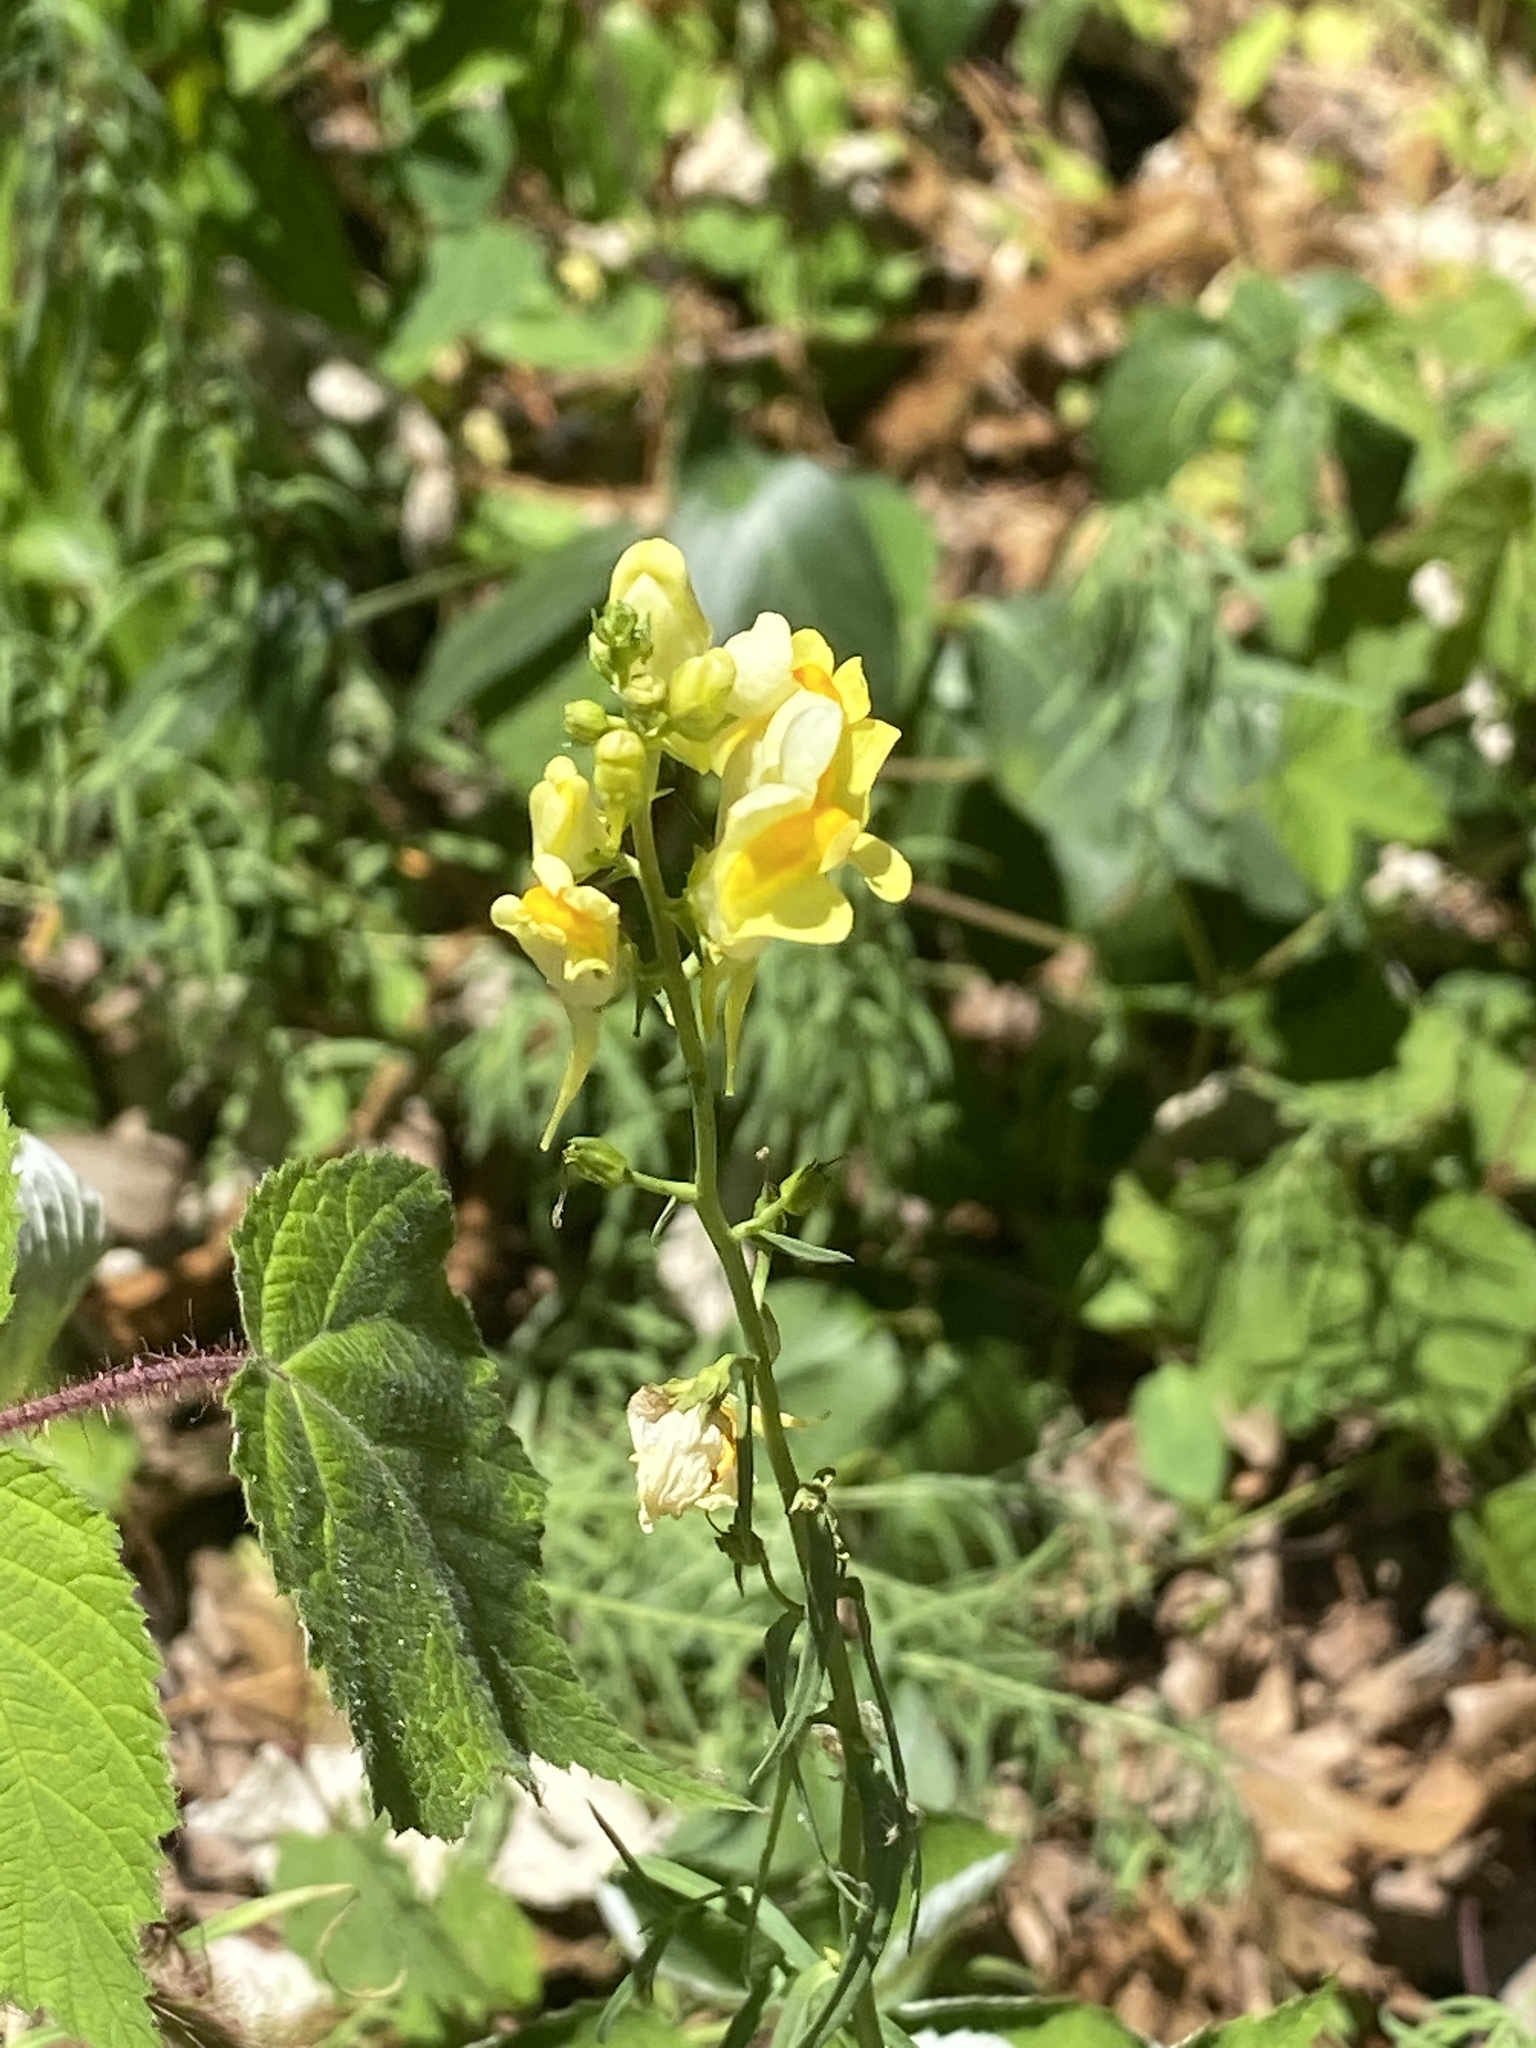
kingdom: Plantae
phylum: Tracheophyta
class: Magnoliopsida
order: Lamiales
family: Plantaginaceae
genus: Linaria
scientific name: Linaria vulgaris
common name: Butter and eggs
